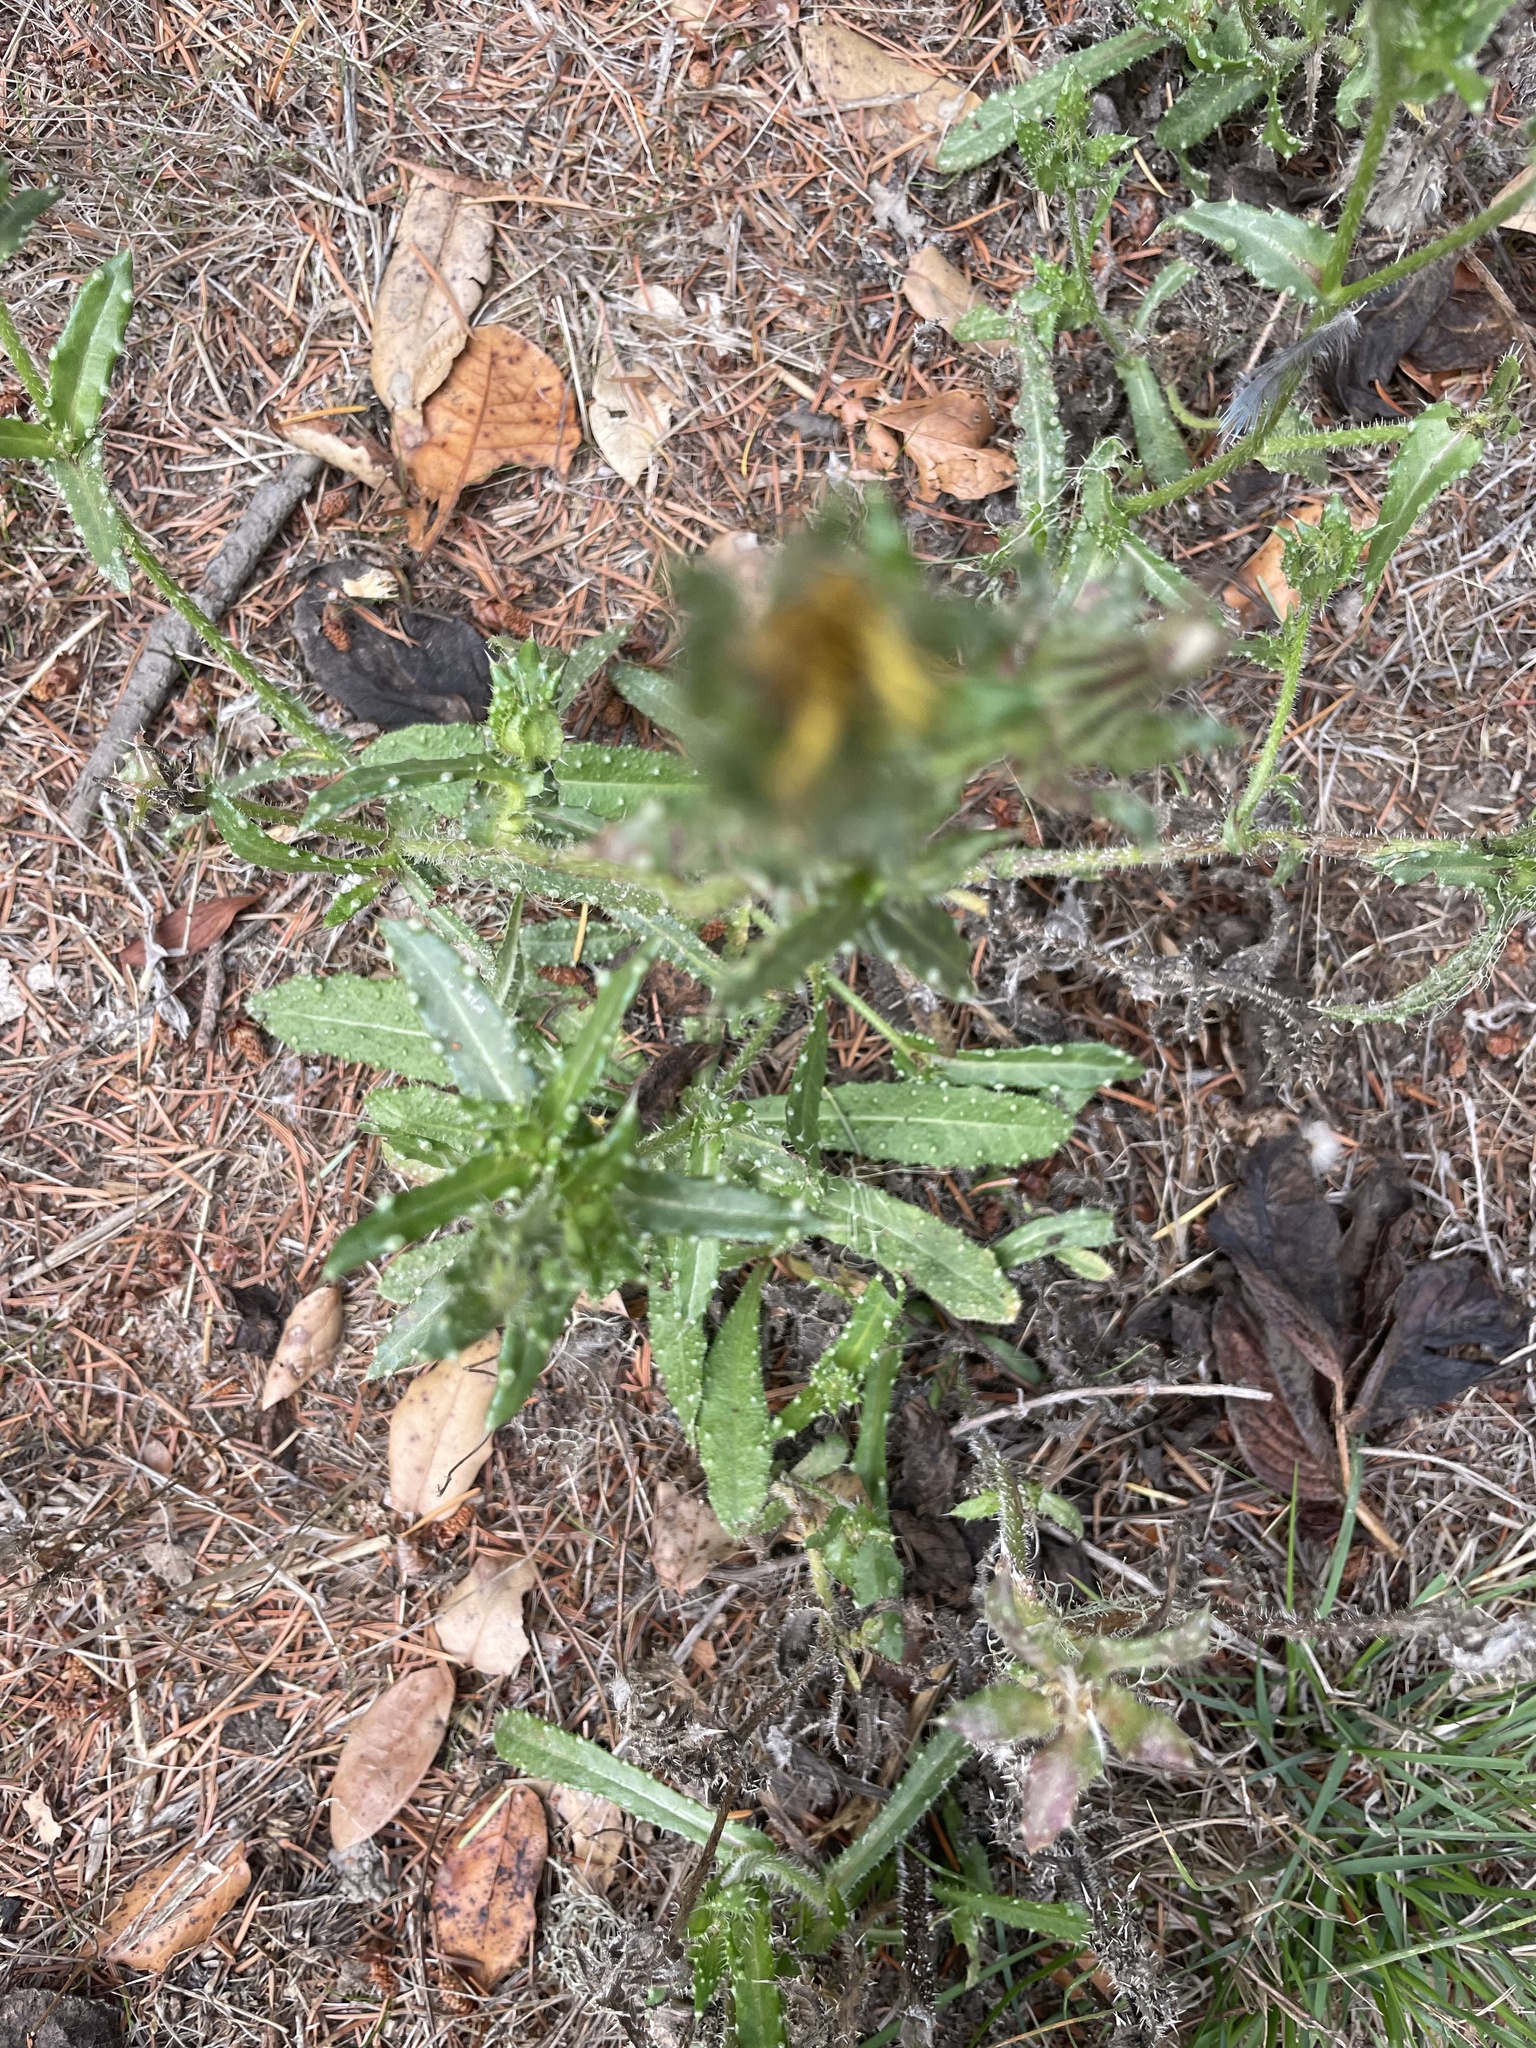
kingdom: Plantae
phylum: Tracheophyta
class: Magnoliopsida
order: Asterales
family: Asteraceae
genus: Helminthotheca
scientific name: Helminthotheca echioides
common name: Ox-tongue
